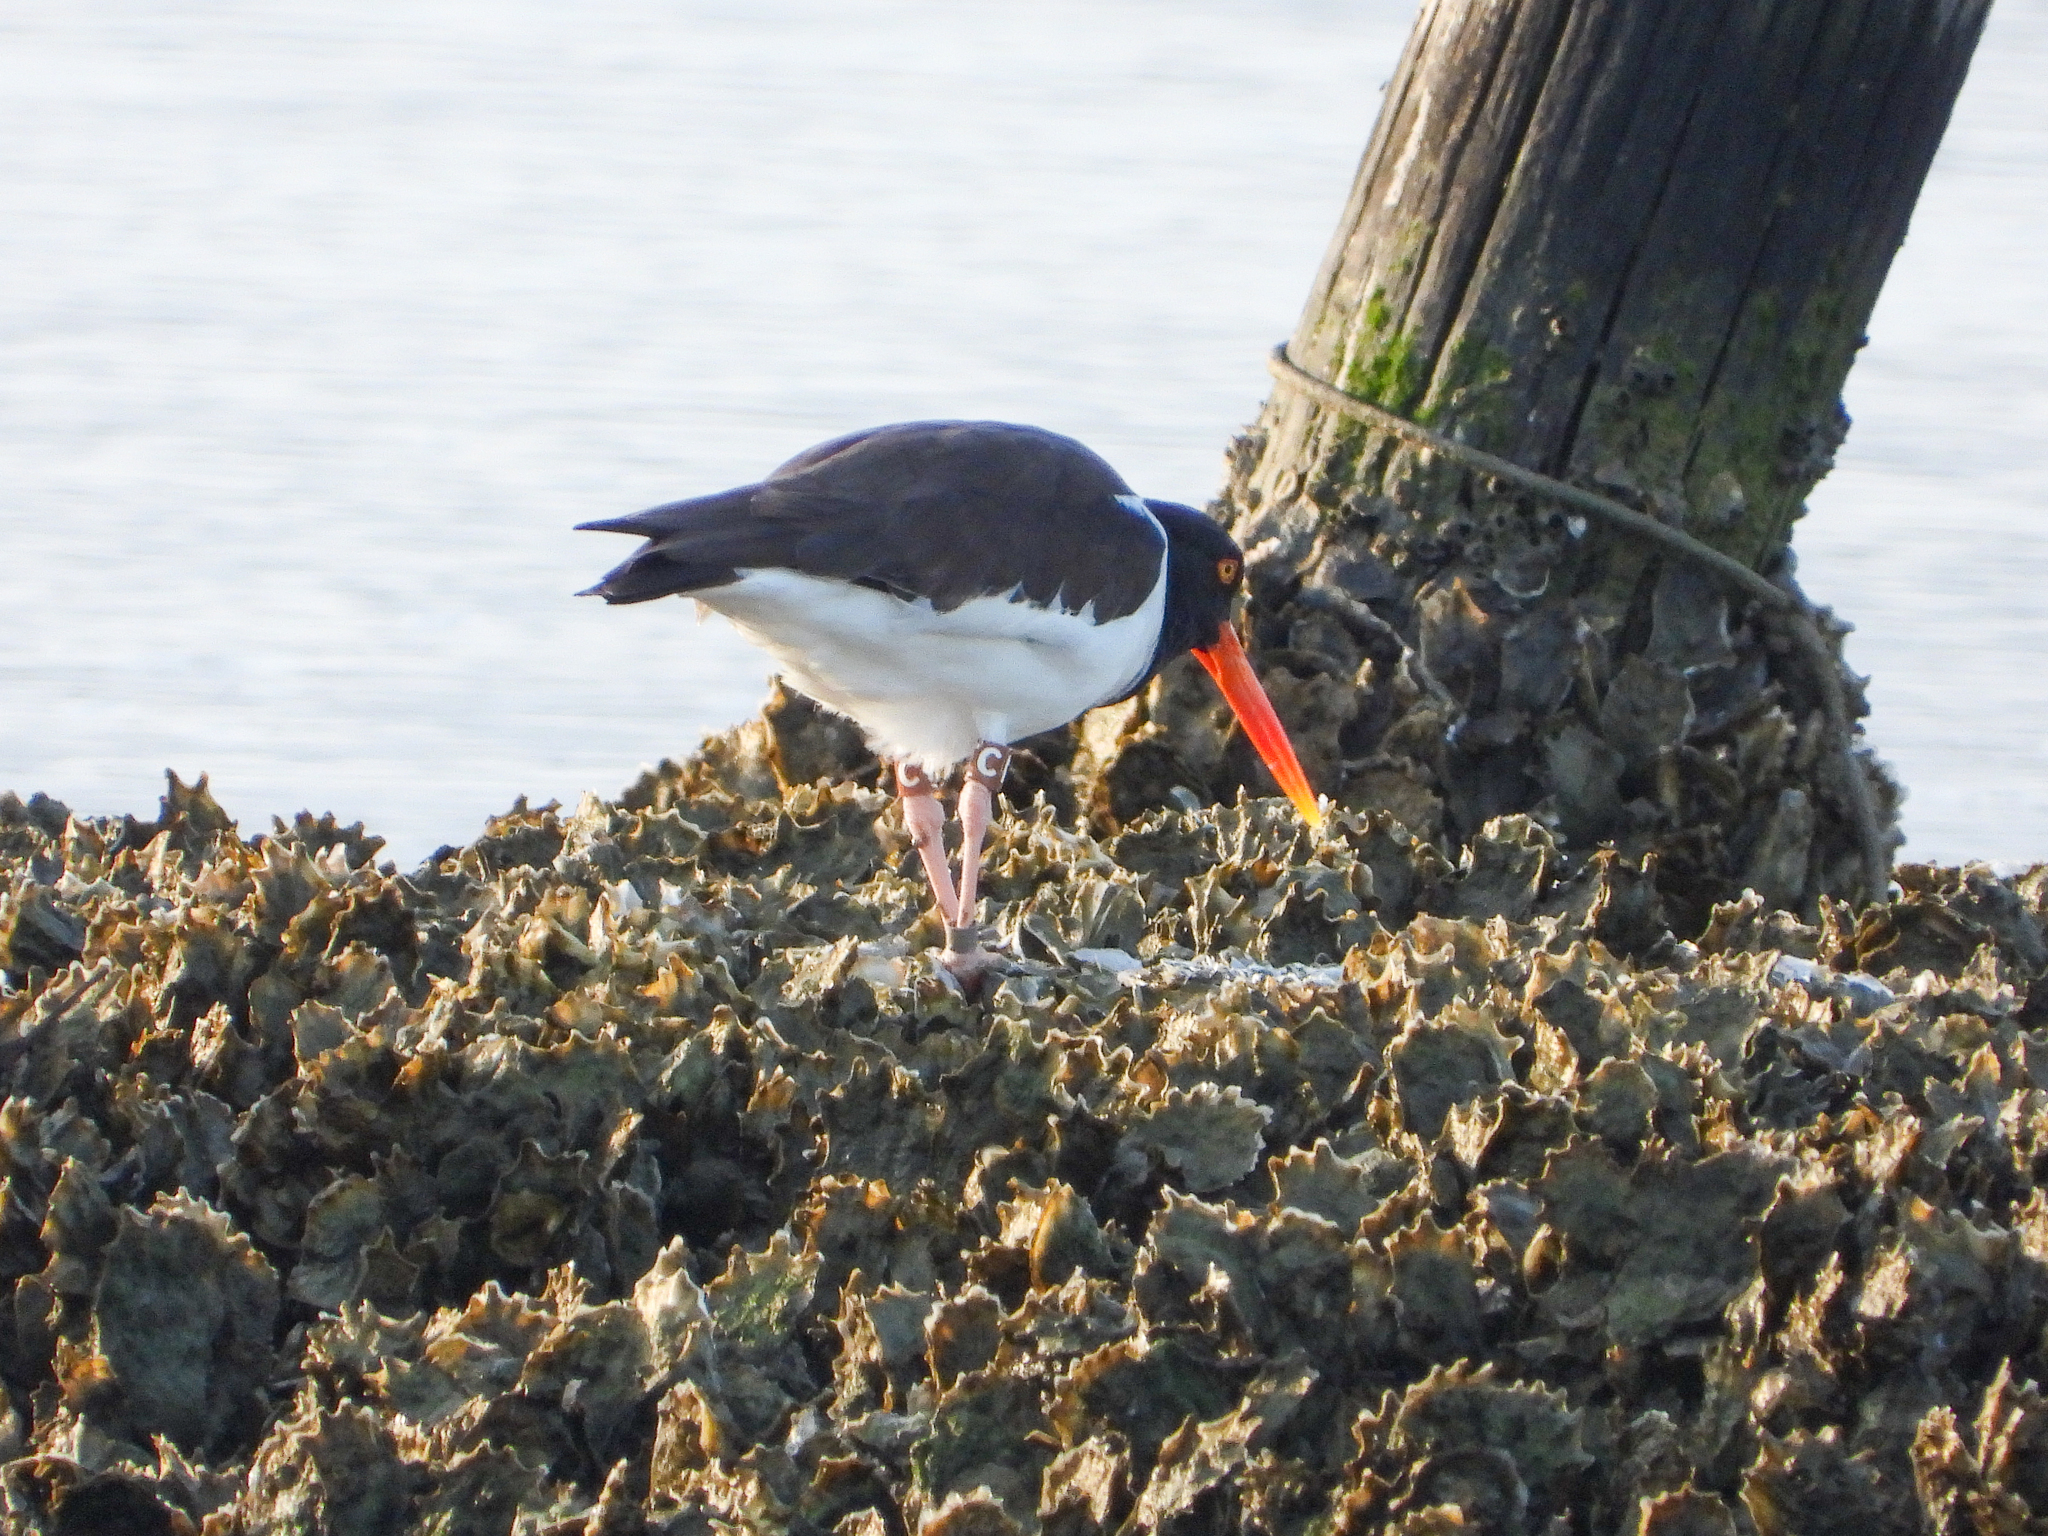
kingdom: Animalia
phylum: Chordata
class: Aves
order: Charadriiformes
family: Haematopodidae
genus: Haematopus
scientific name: Haematopus palliatus
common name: American oystercatcher
